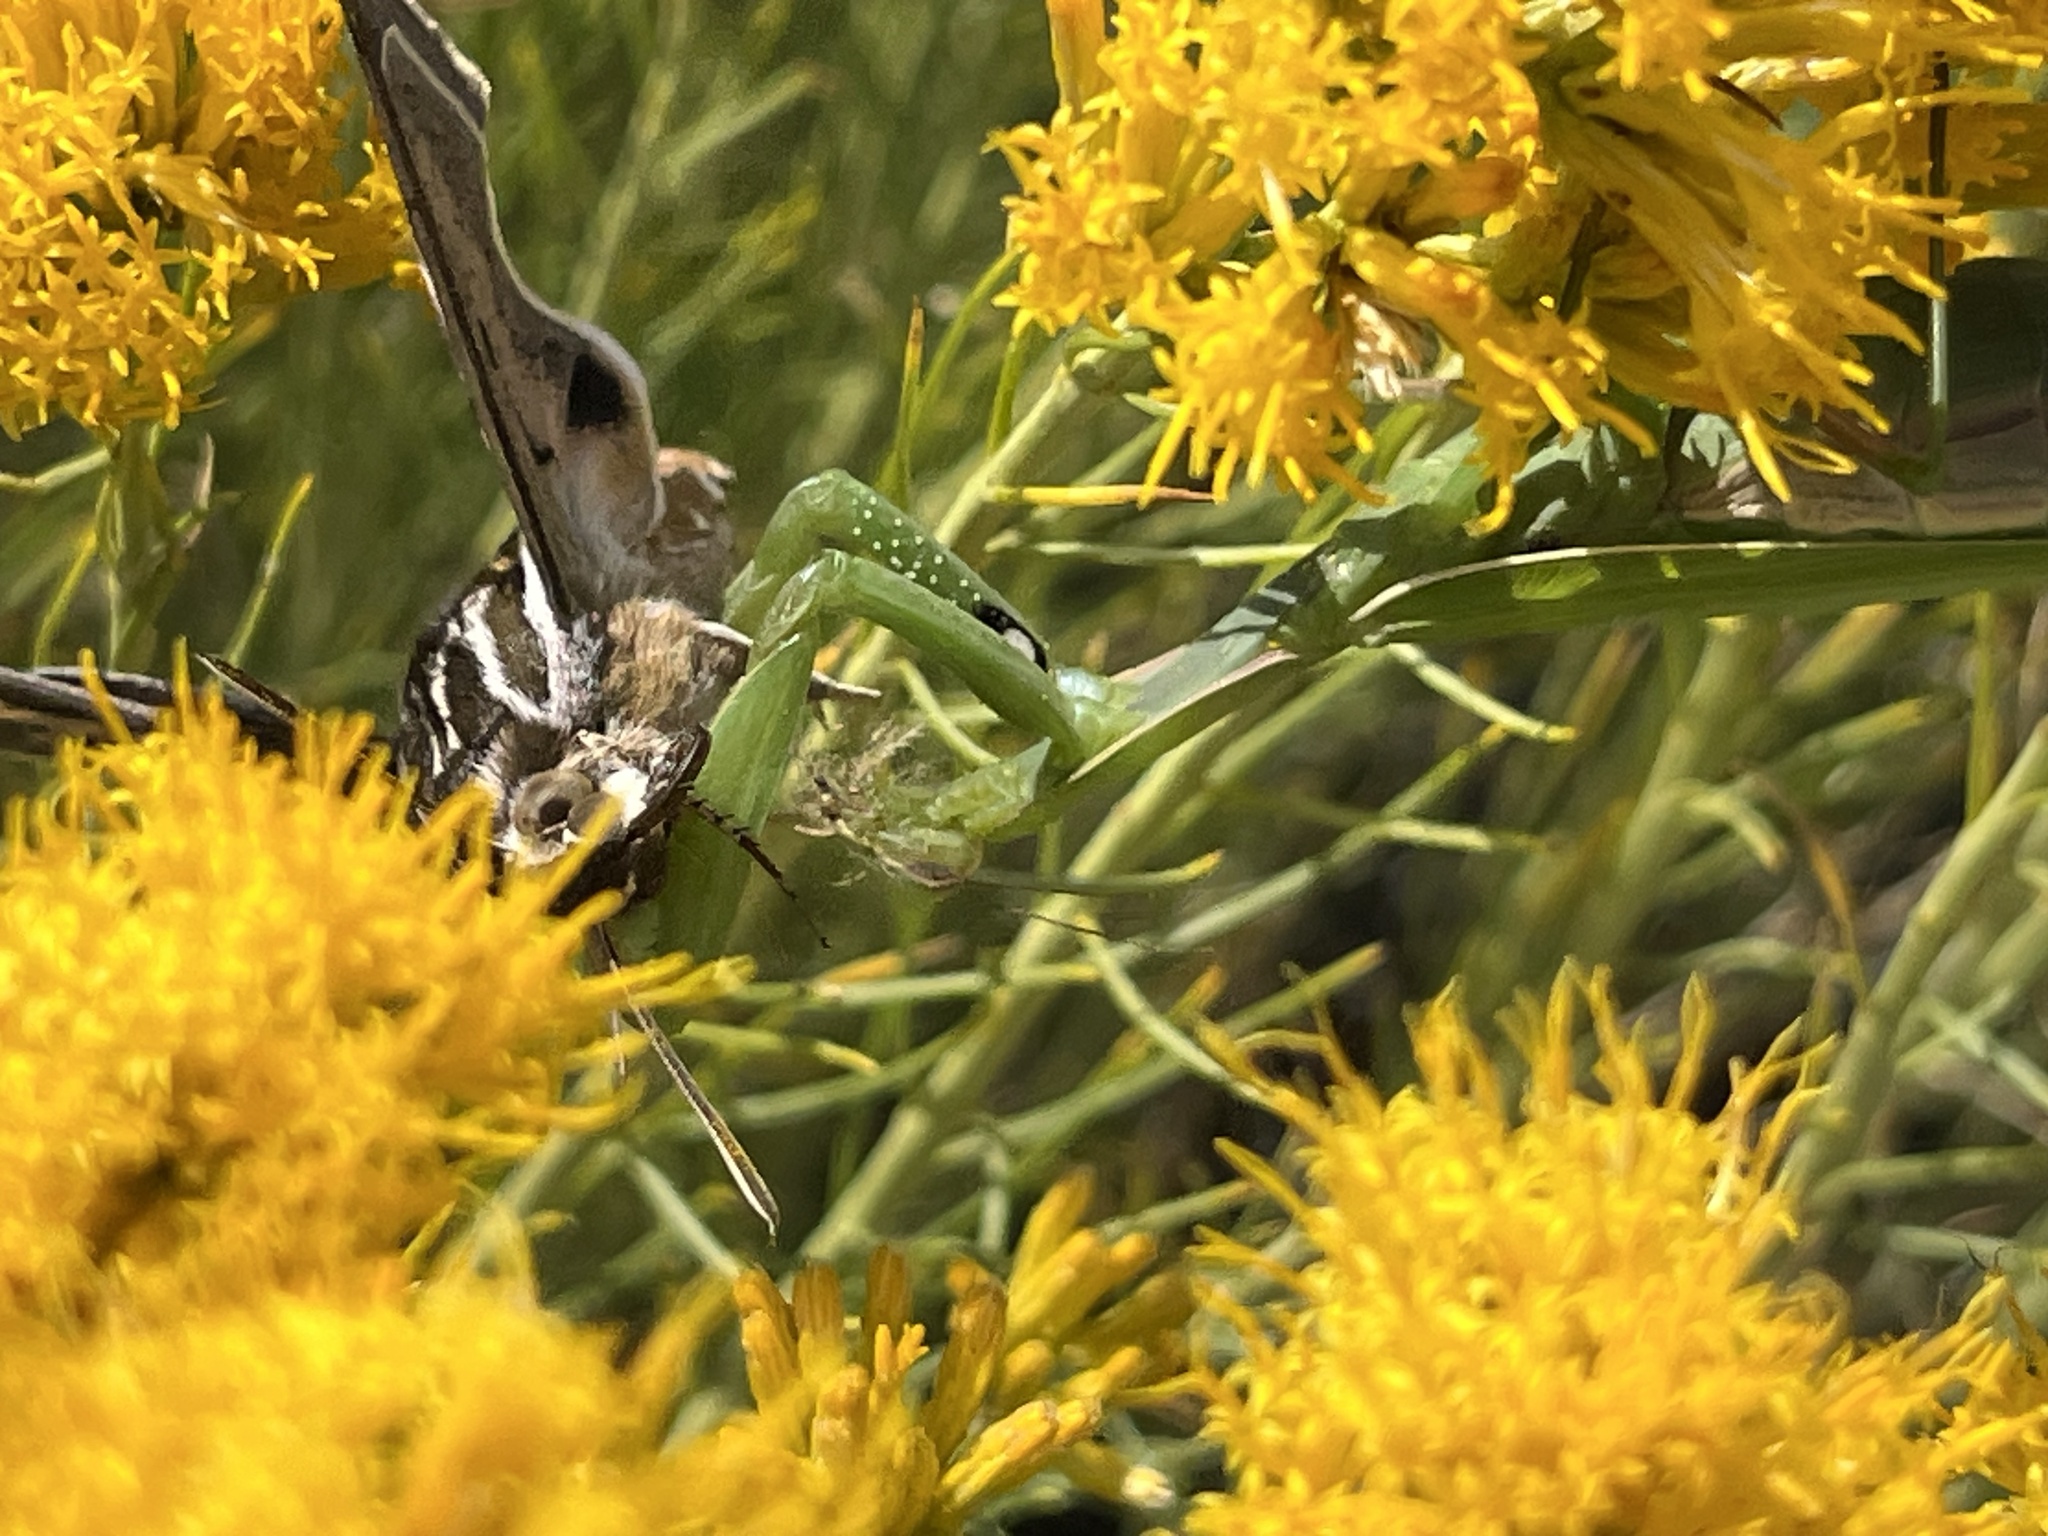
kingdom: Animalia
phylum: Arthropoda
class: Insecta
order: Mantodea
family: Mantidae
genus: Mantis
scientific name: Mantis religiosa
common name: Praying mantis
